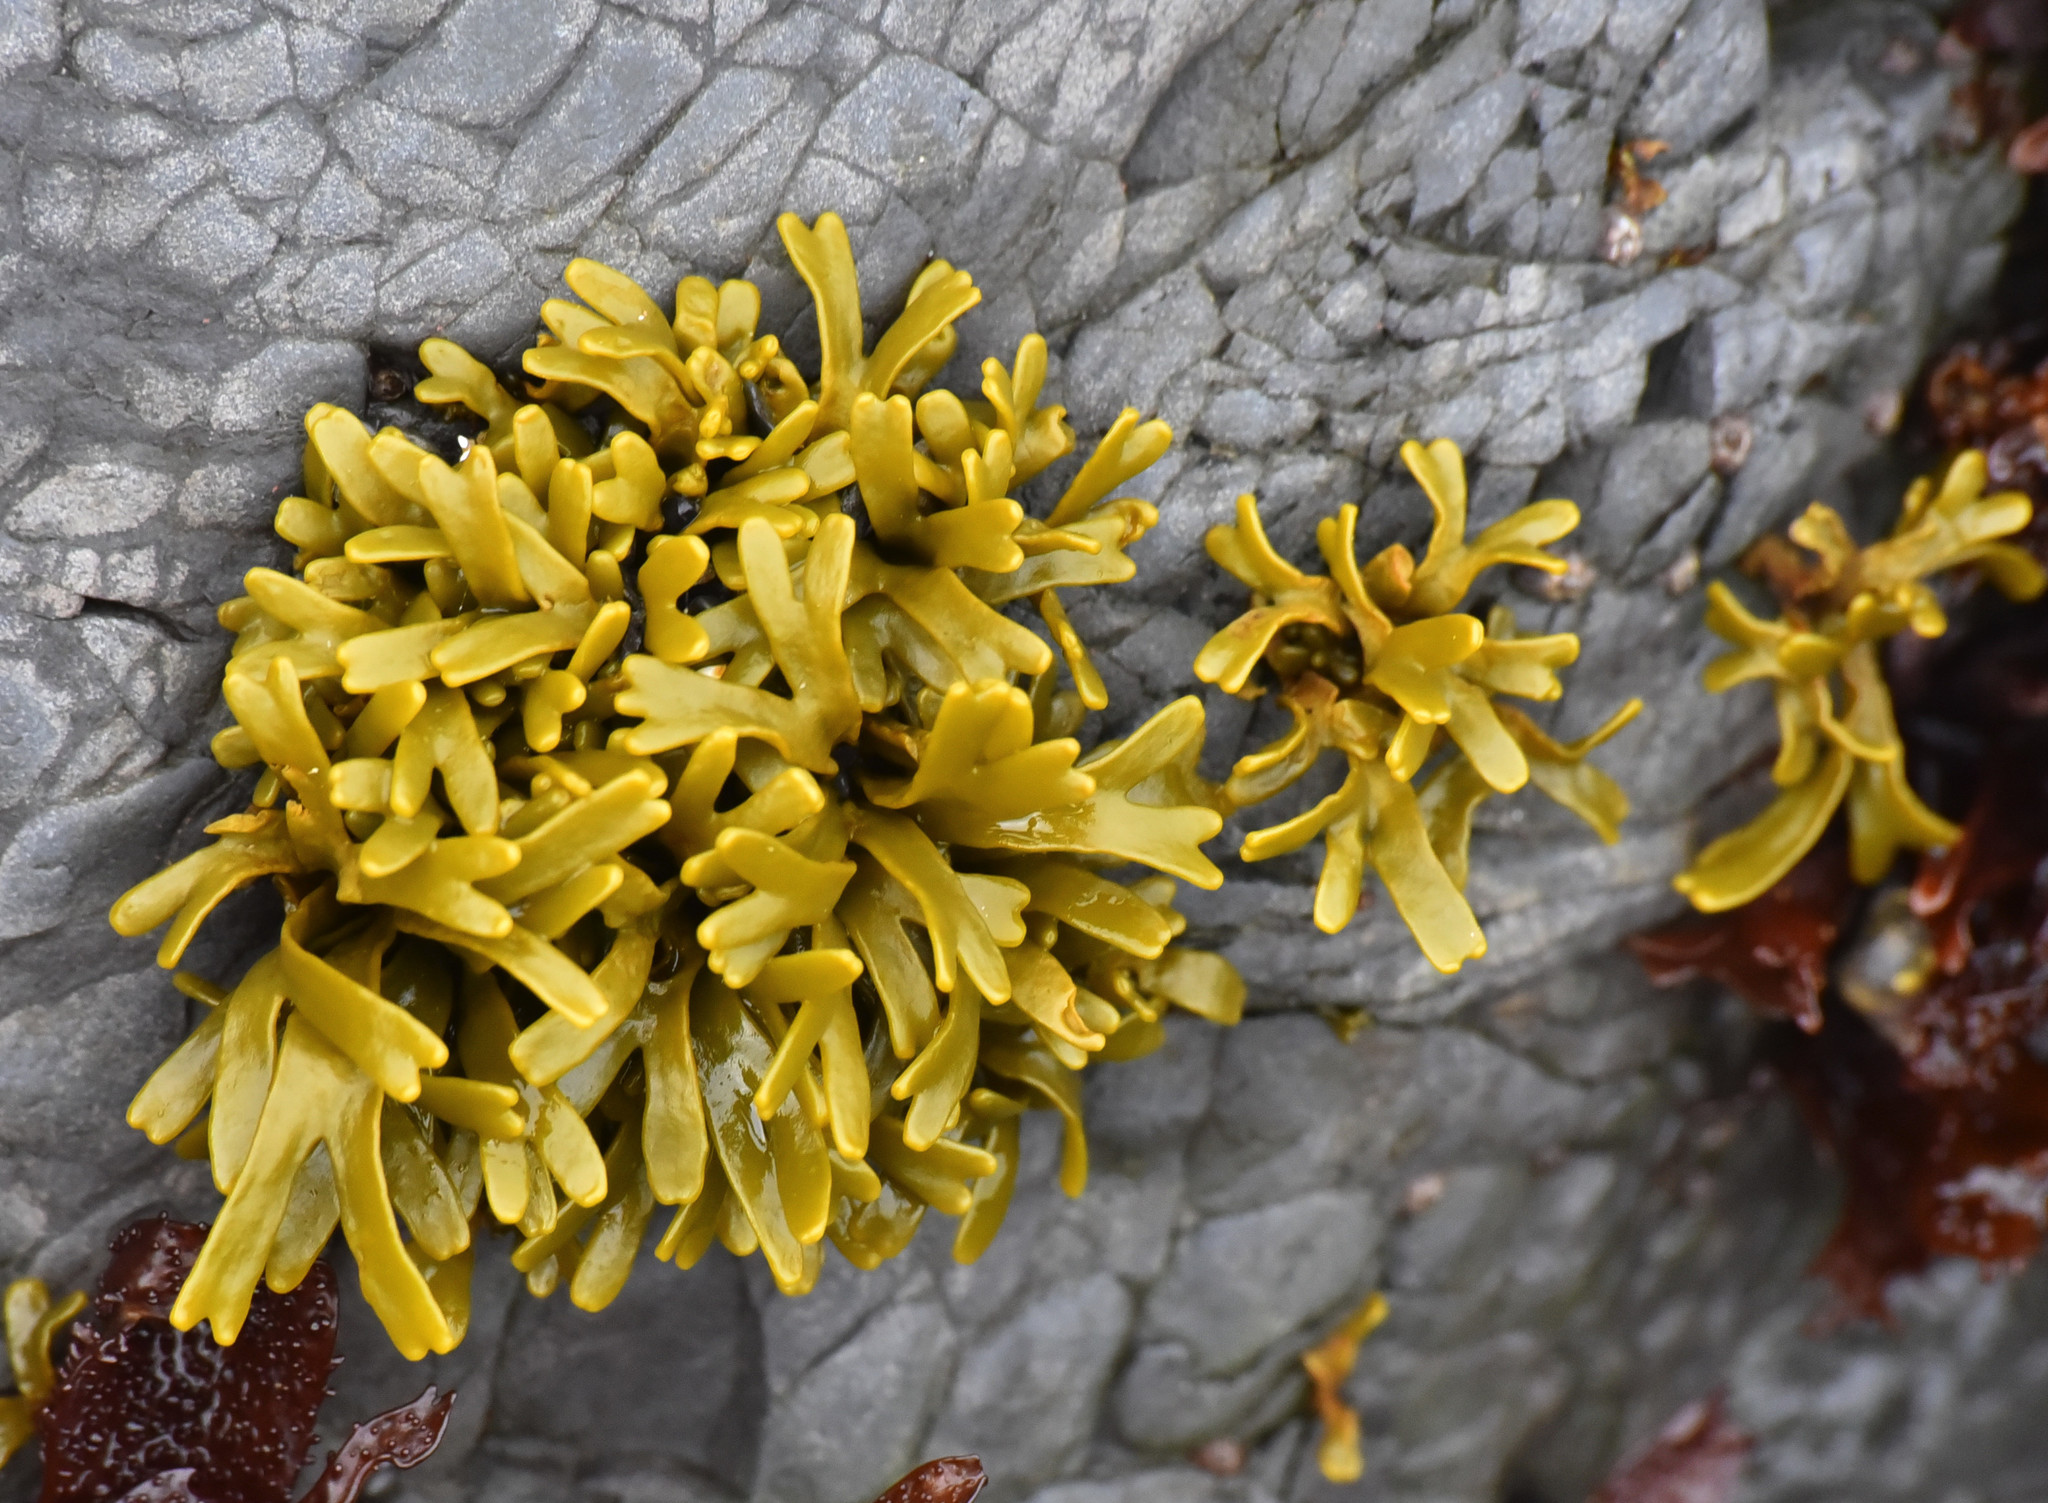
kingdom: Chromista
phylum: Ochrophyta
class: Phaeophyceae
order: Fucales
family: Fucaceae
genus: Pelvetiopsis
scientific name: Pelvetiopsis limitata
